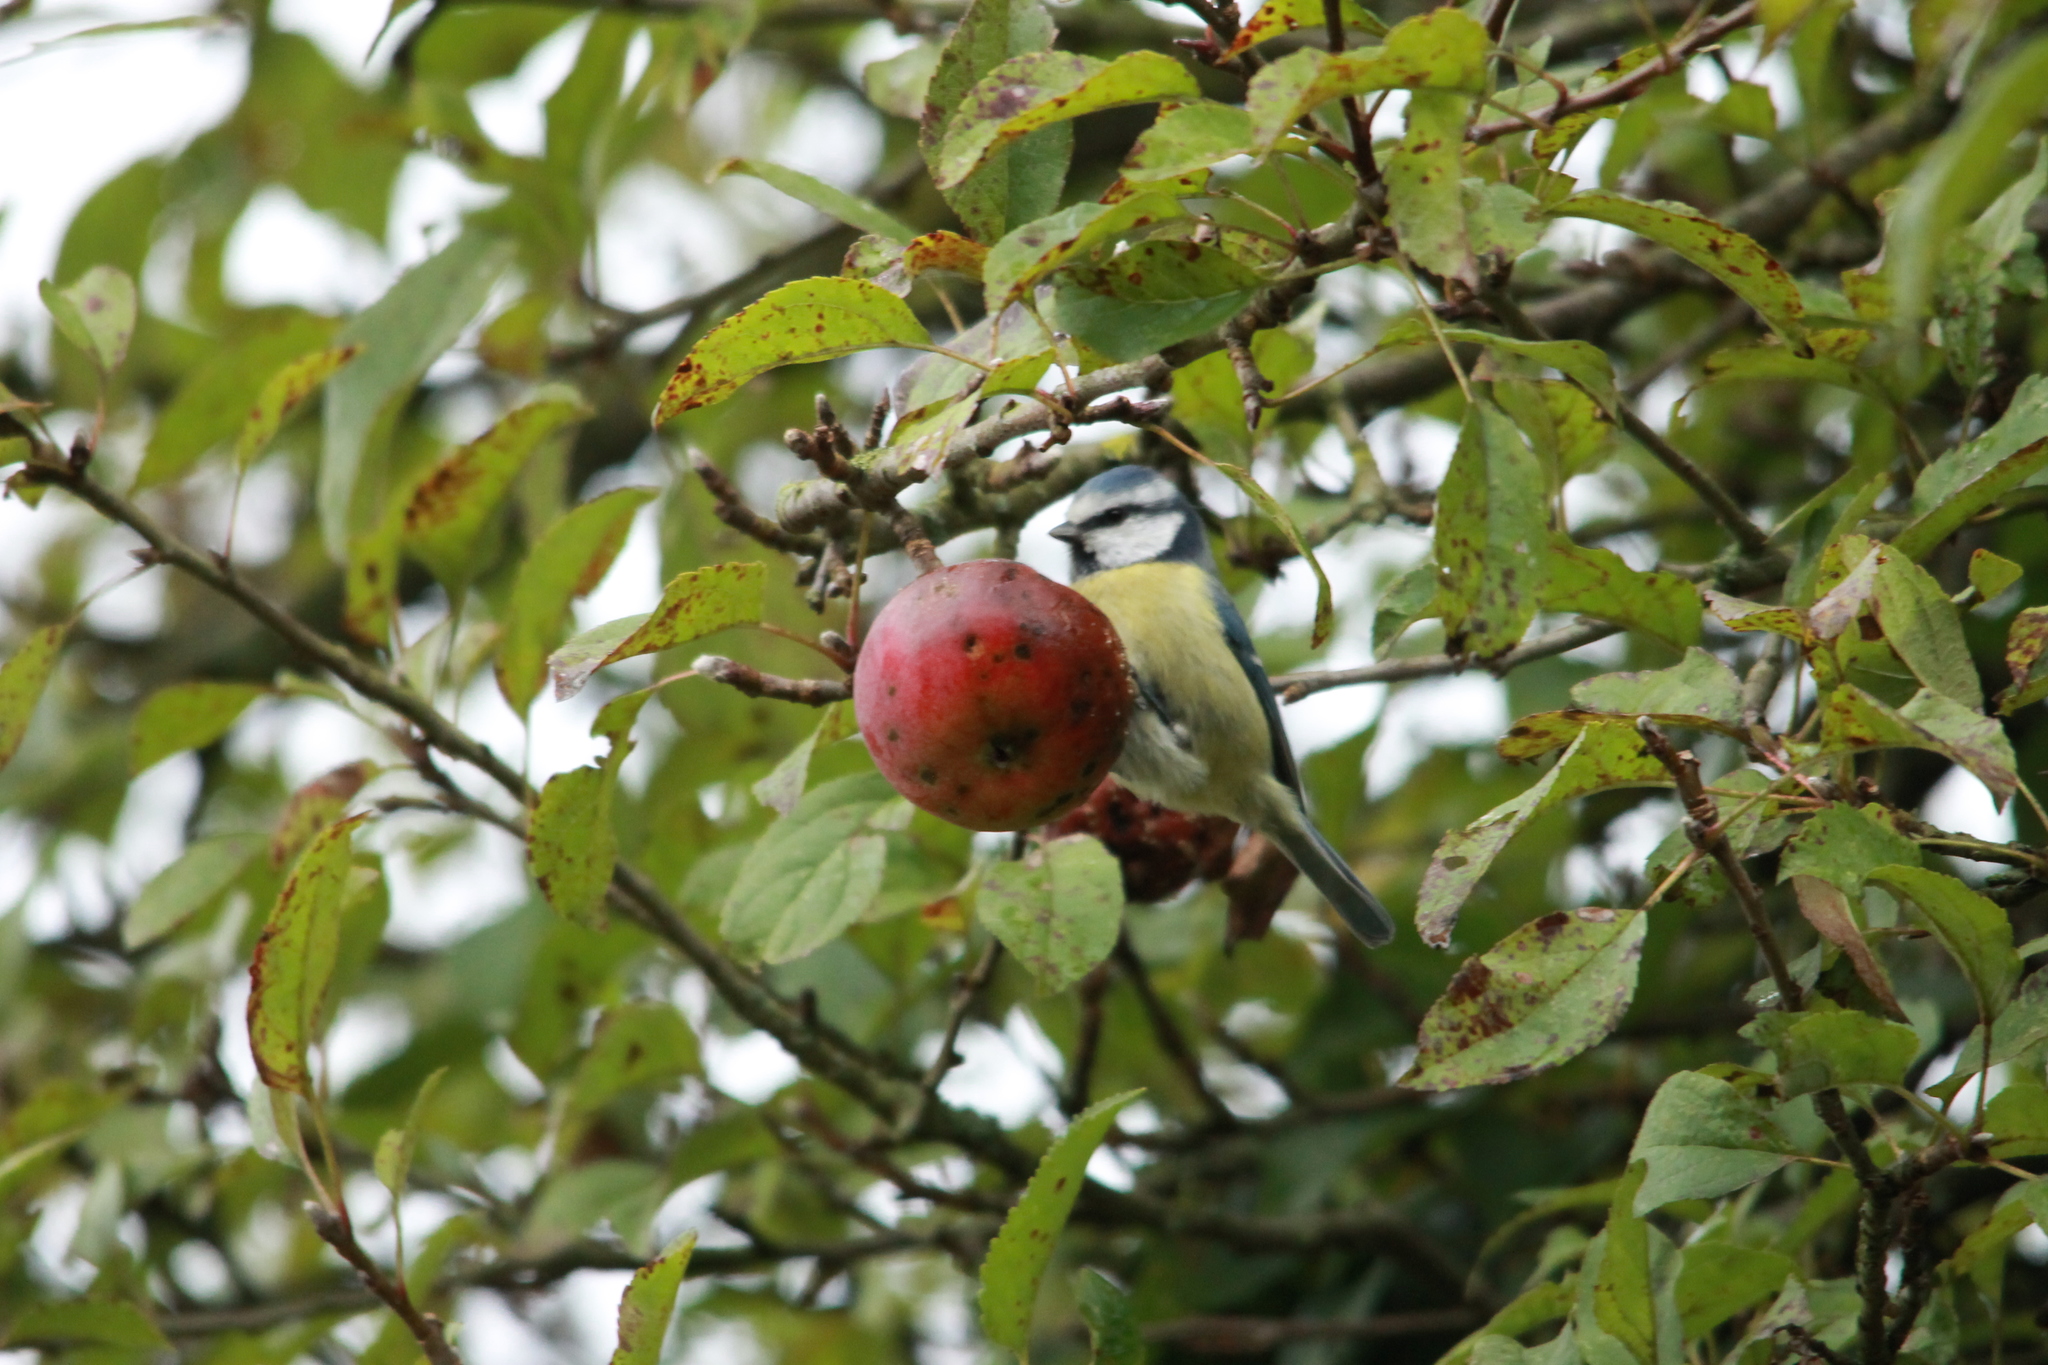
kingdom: Animalia
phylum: Chordata
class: Aves
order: Passeriformes
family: Paridae
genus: Cyanistes
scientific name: Cyanistes caeruleus
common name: Eurasian blue tit
